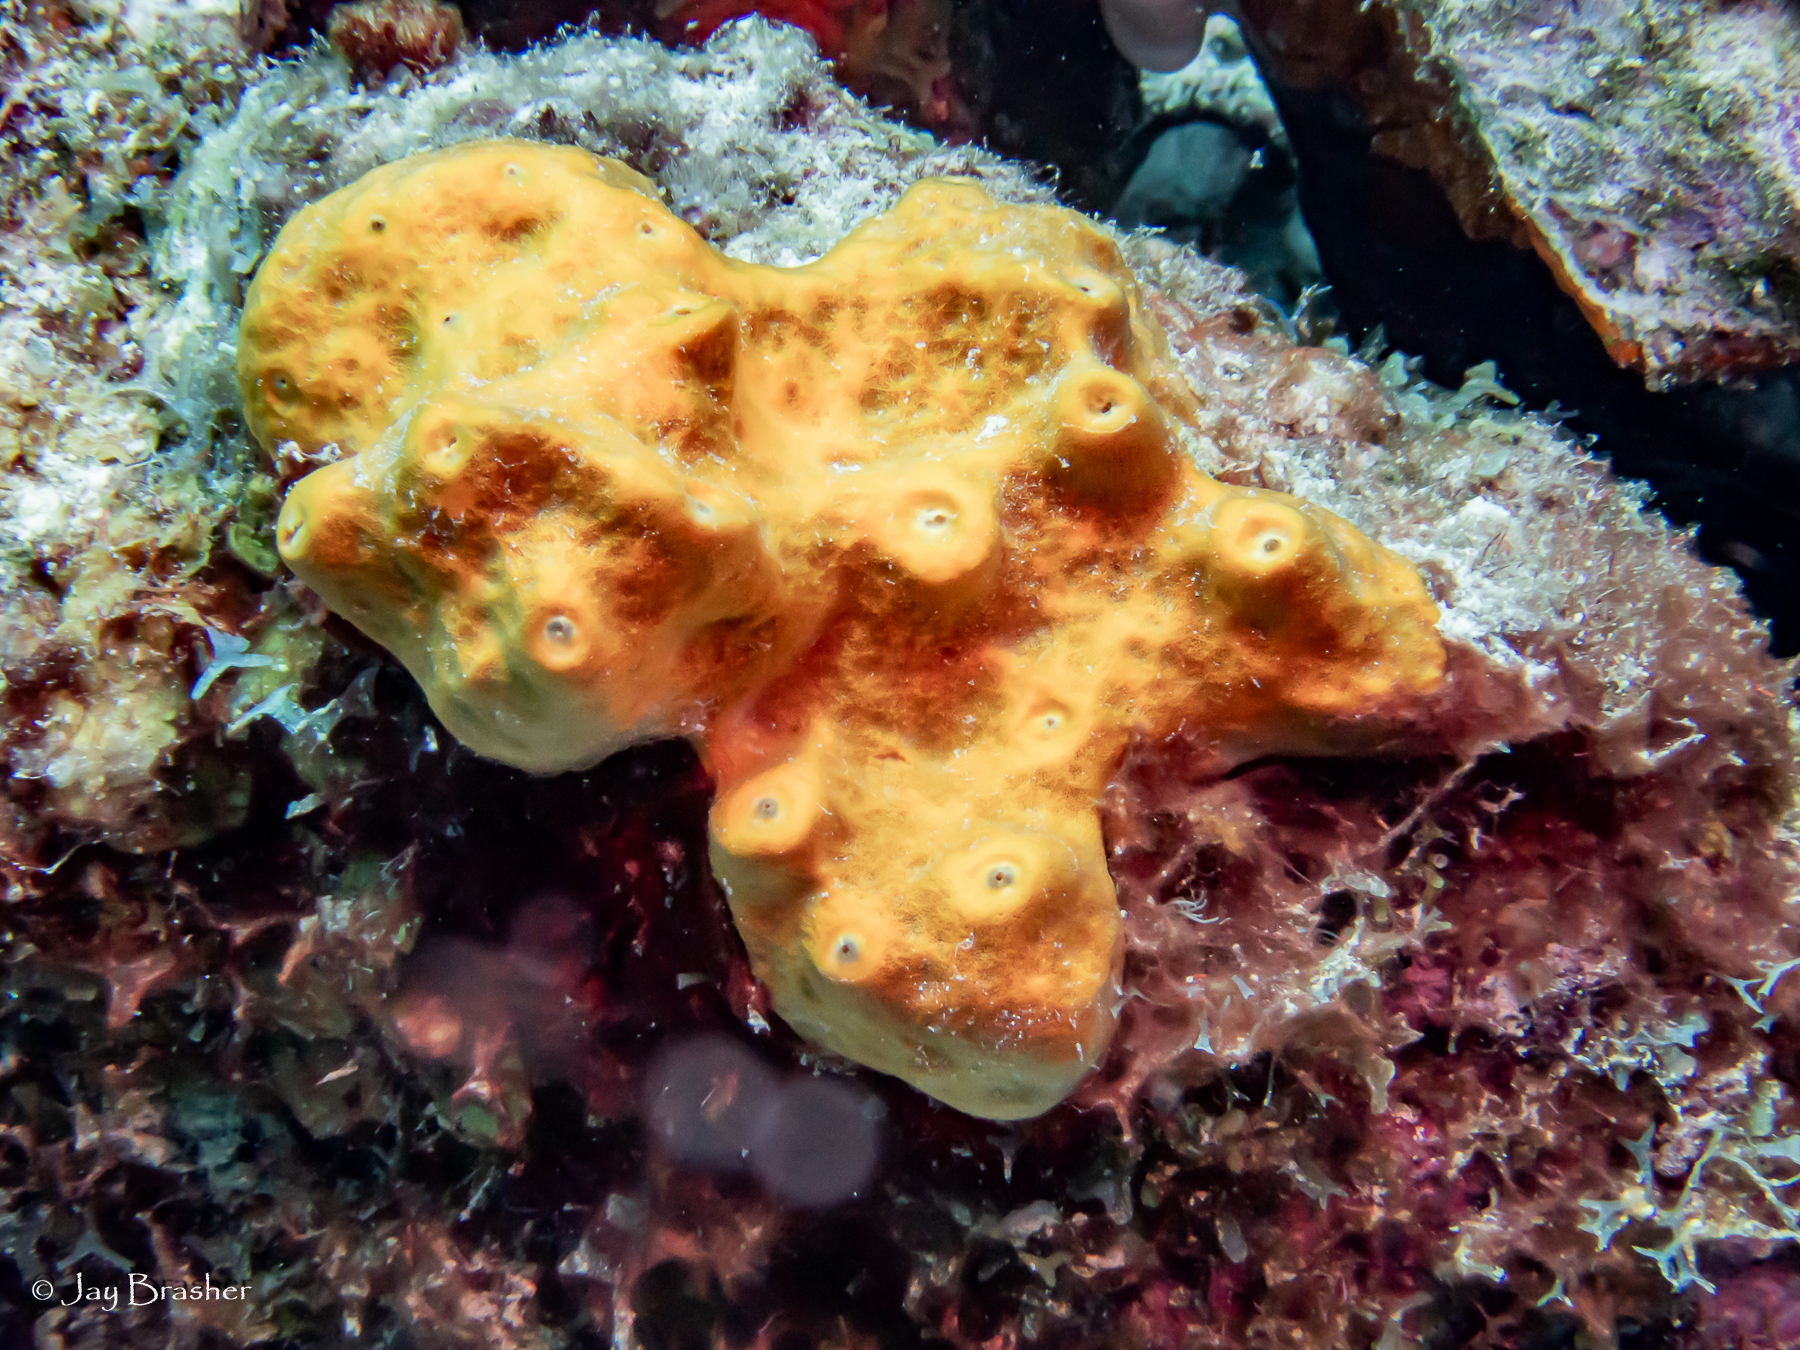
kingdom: Animalia
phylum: Porifera
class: Demospongiae
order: Axinellida
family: Raspailiidae
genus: Ectyoplasia
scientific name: Ectyoplasia ferox
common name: Brown encrusting octopus sponge
